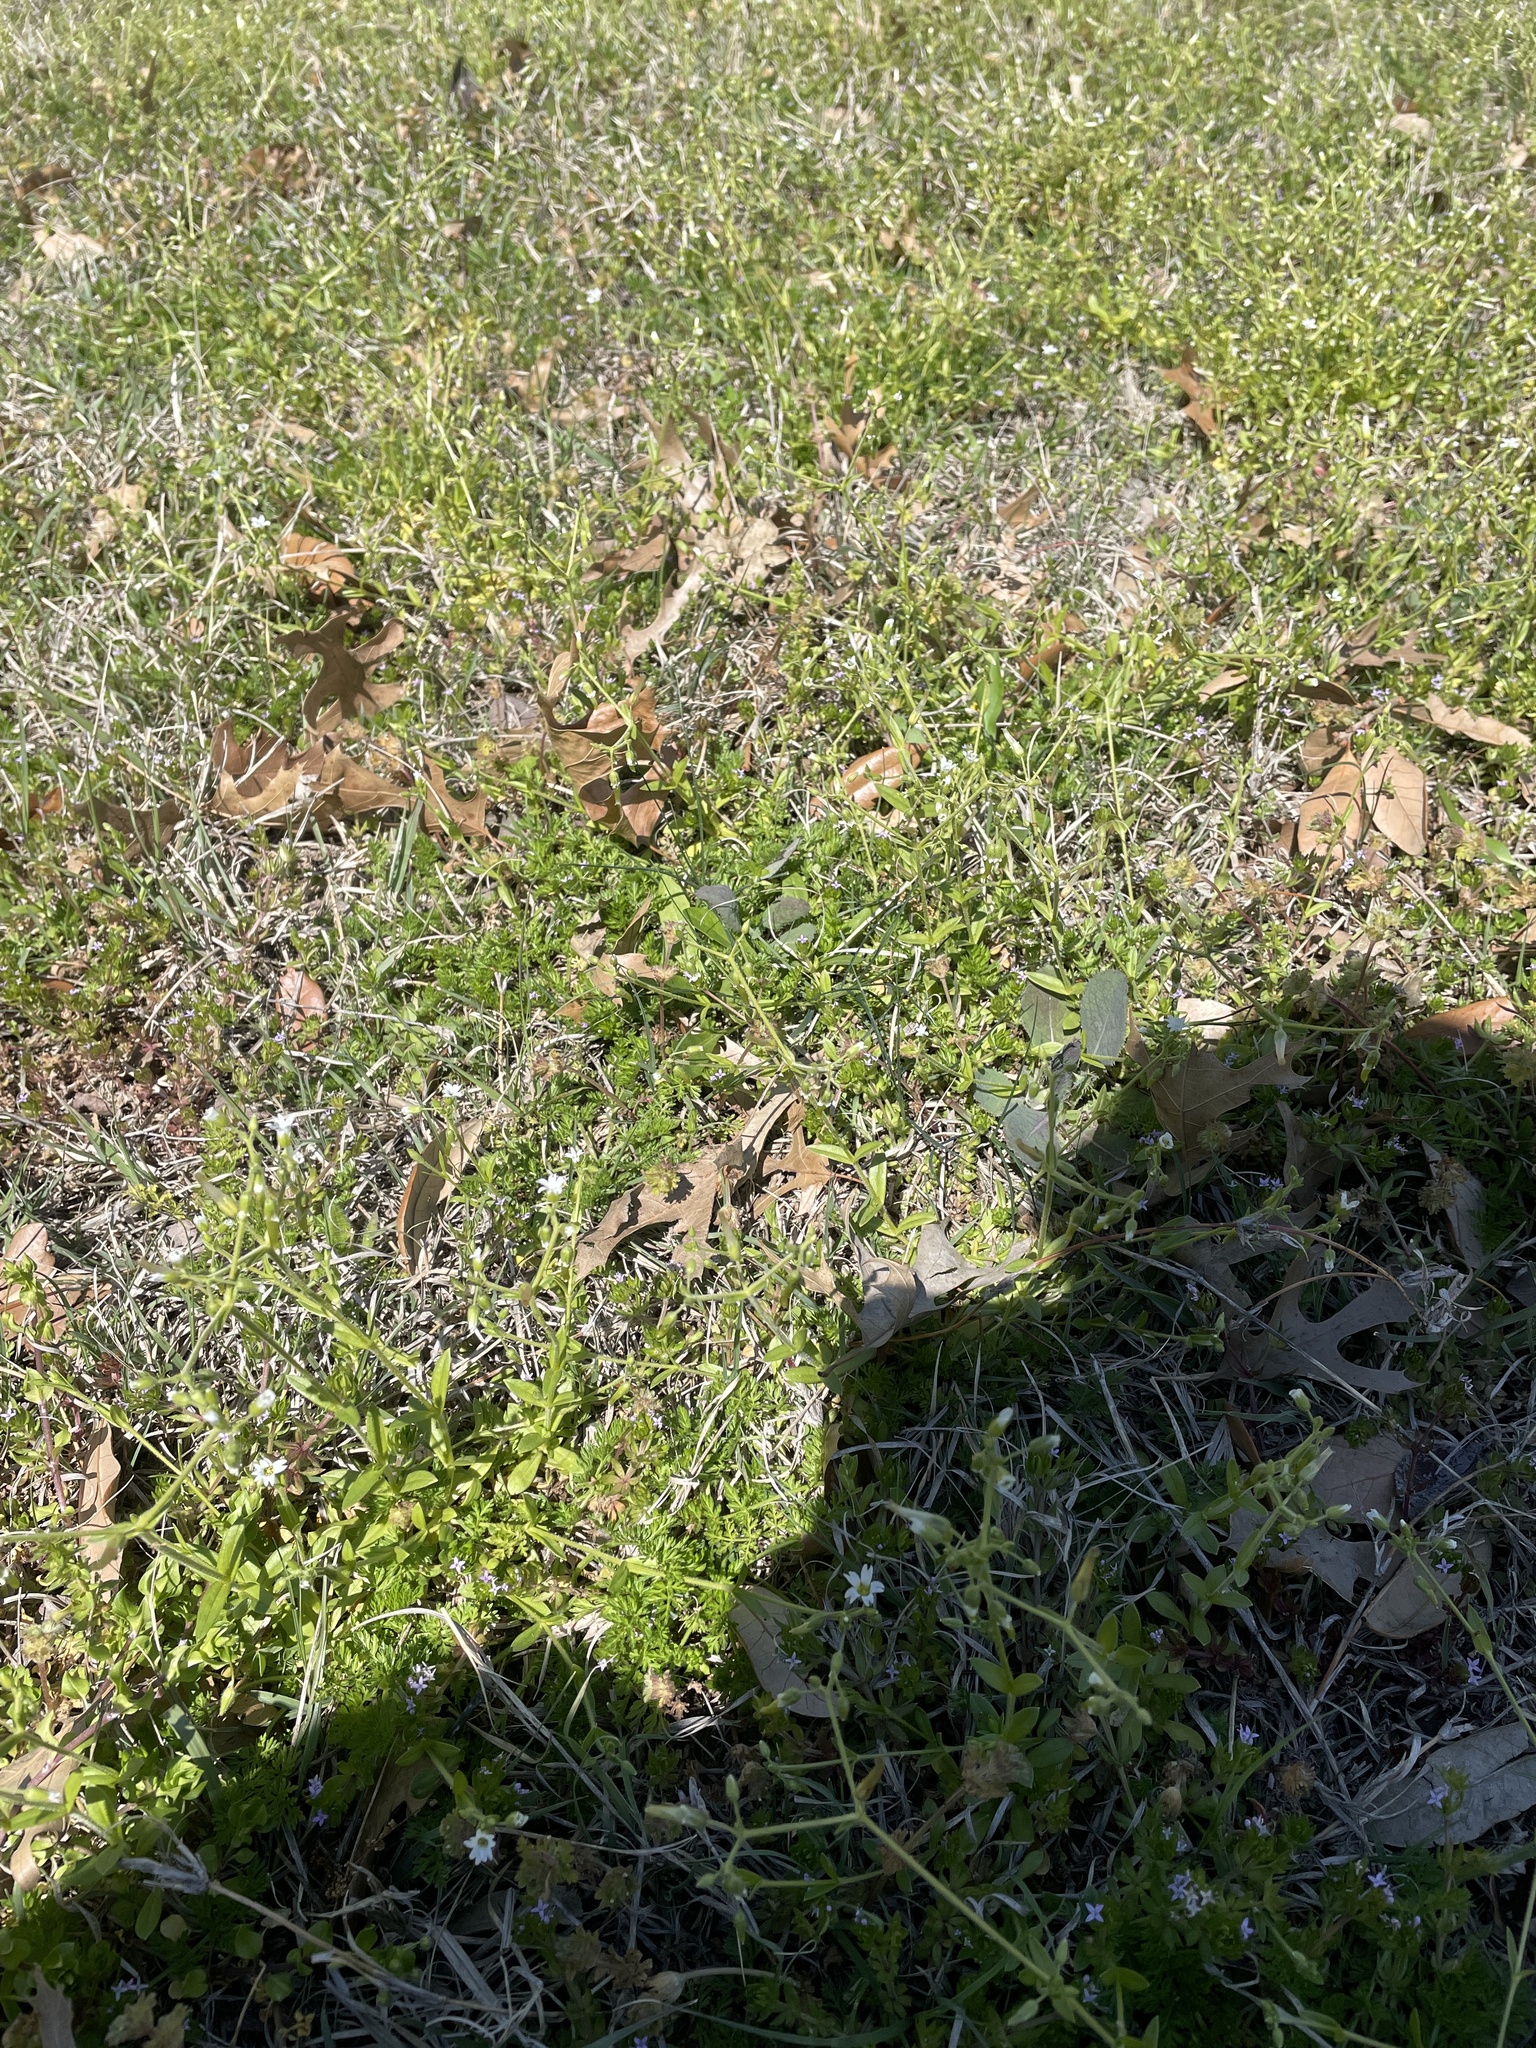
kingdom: Plantae
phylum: Tracheophyta
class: Magnoliopsida
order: Caryophyllales
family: Caryophyllaceae
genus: Cerastium
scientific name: Cerastium fontanum
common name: Common mouse-ear
